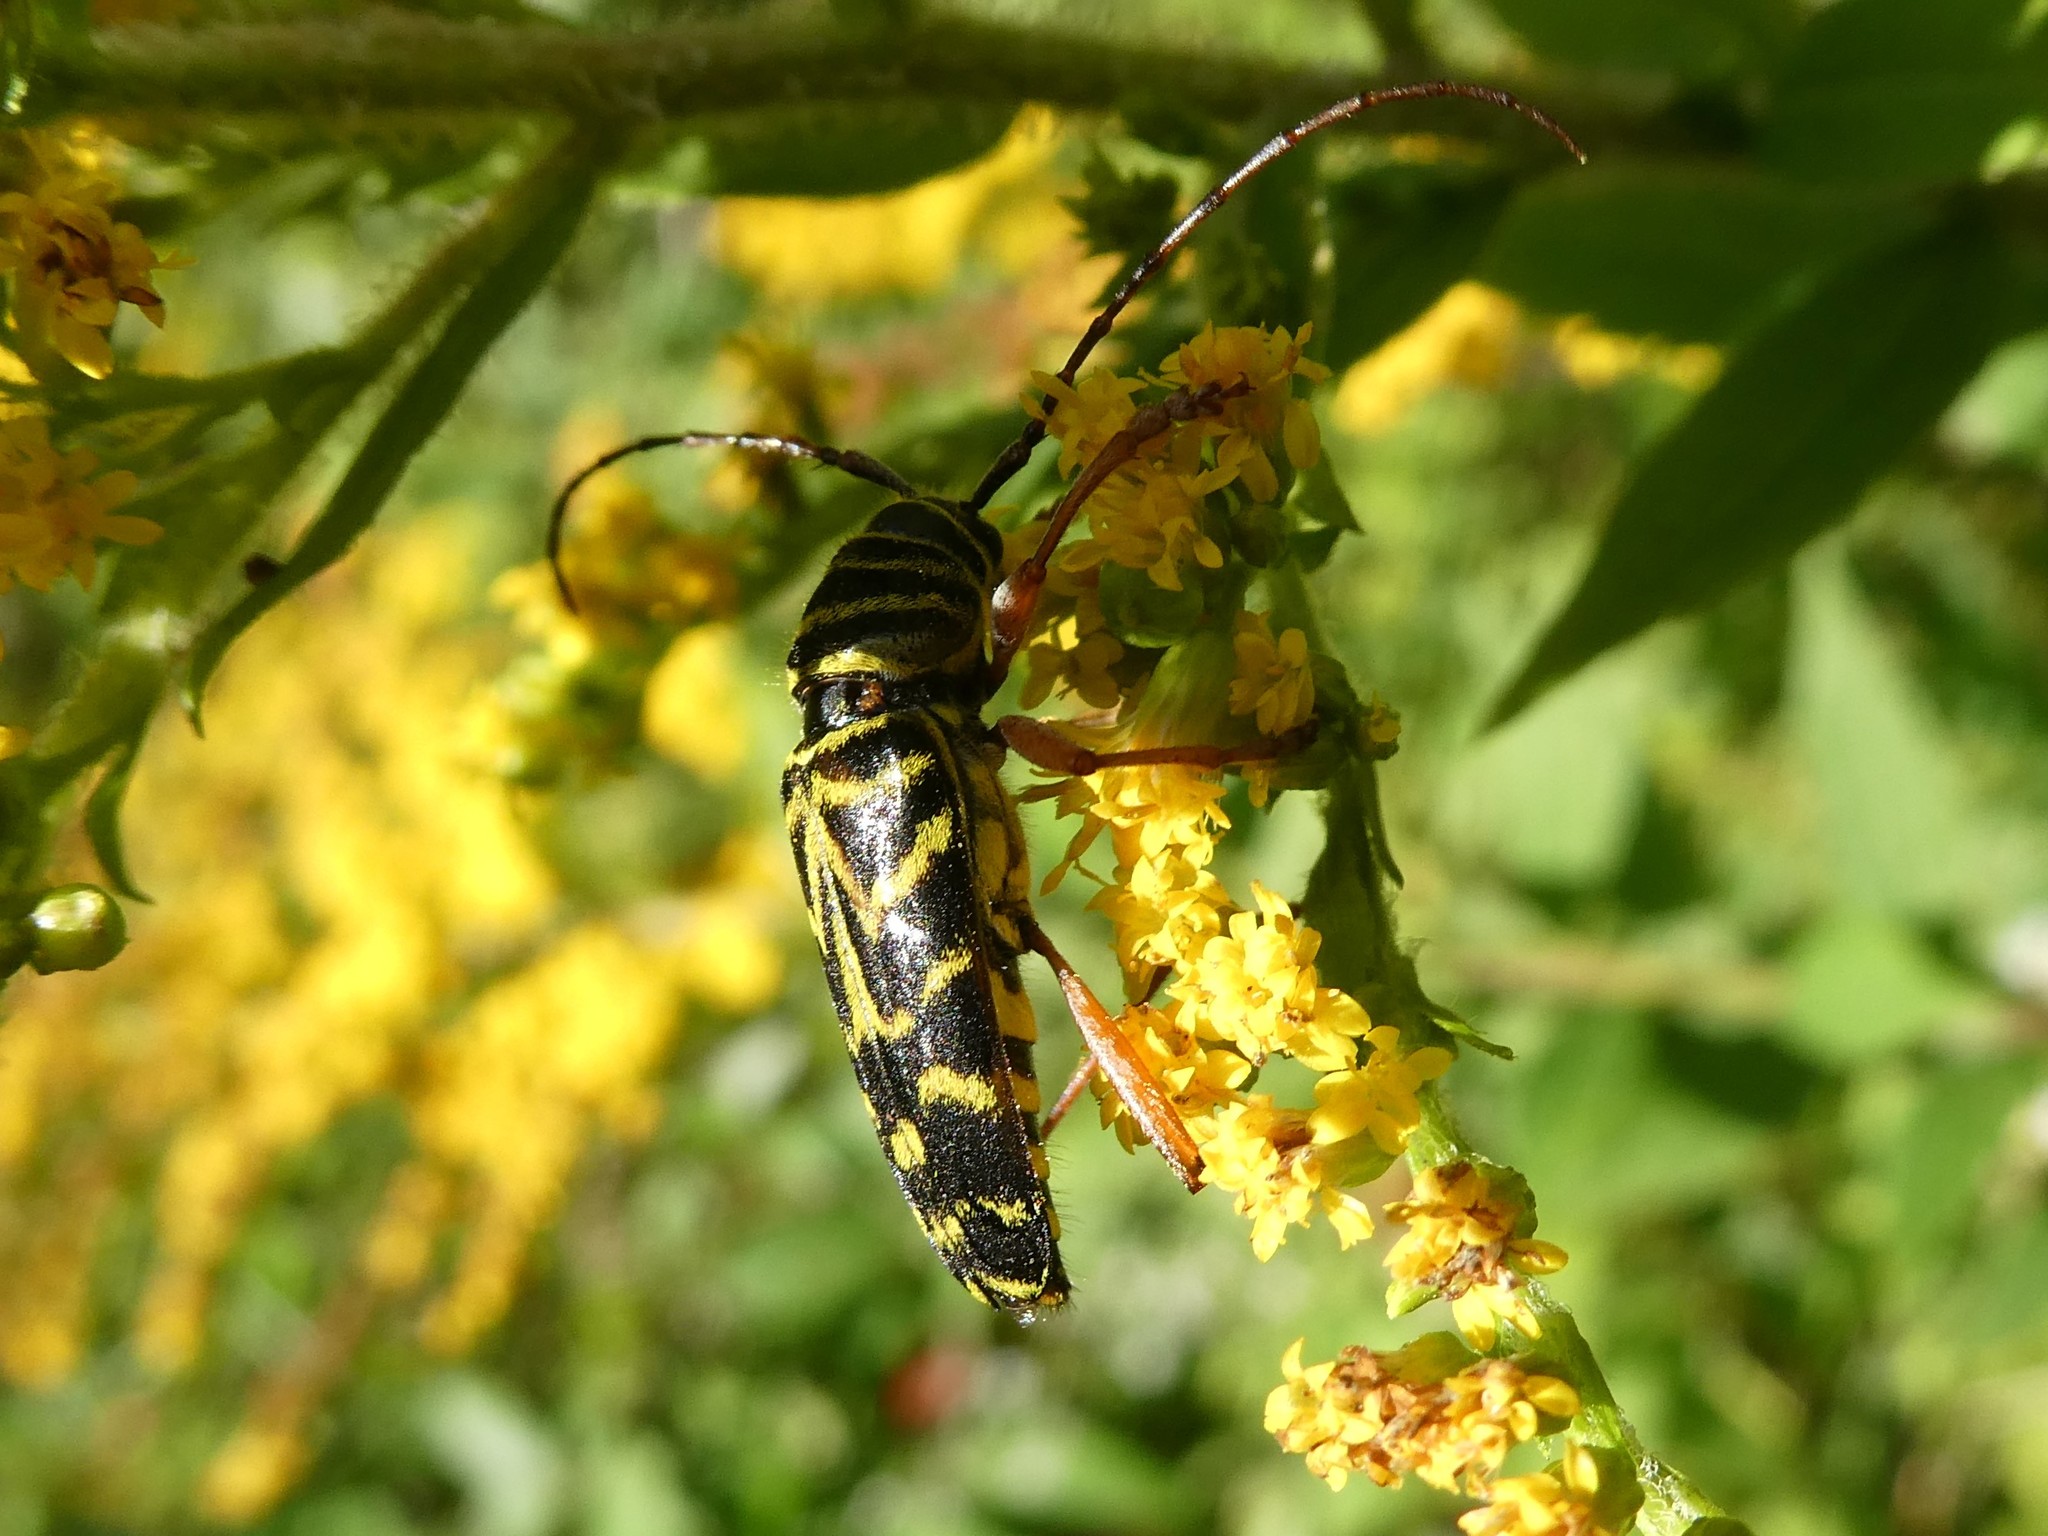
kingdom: Animalia
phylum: Arthropoda
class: Insecta
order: Coleoptera
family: Cerambycidae
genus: Megacyllene
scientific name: Megacyllene robiniae
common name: Locust borer
